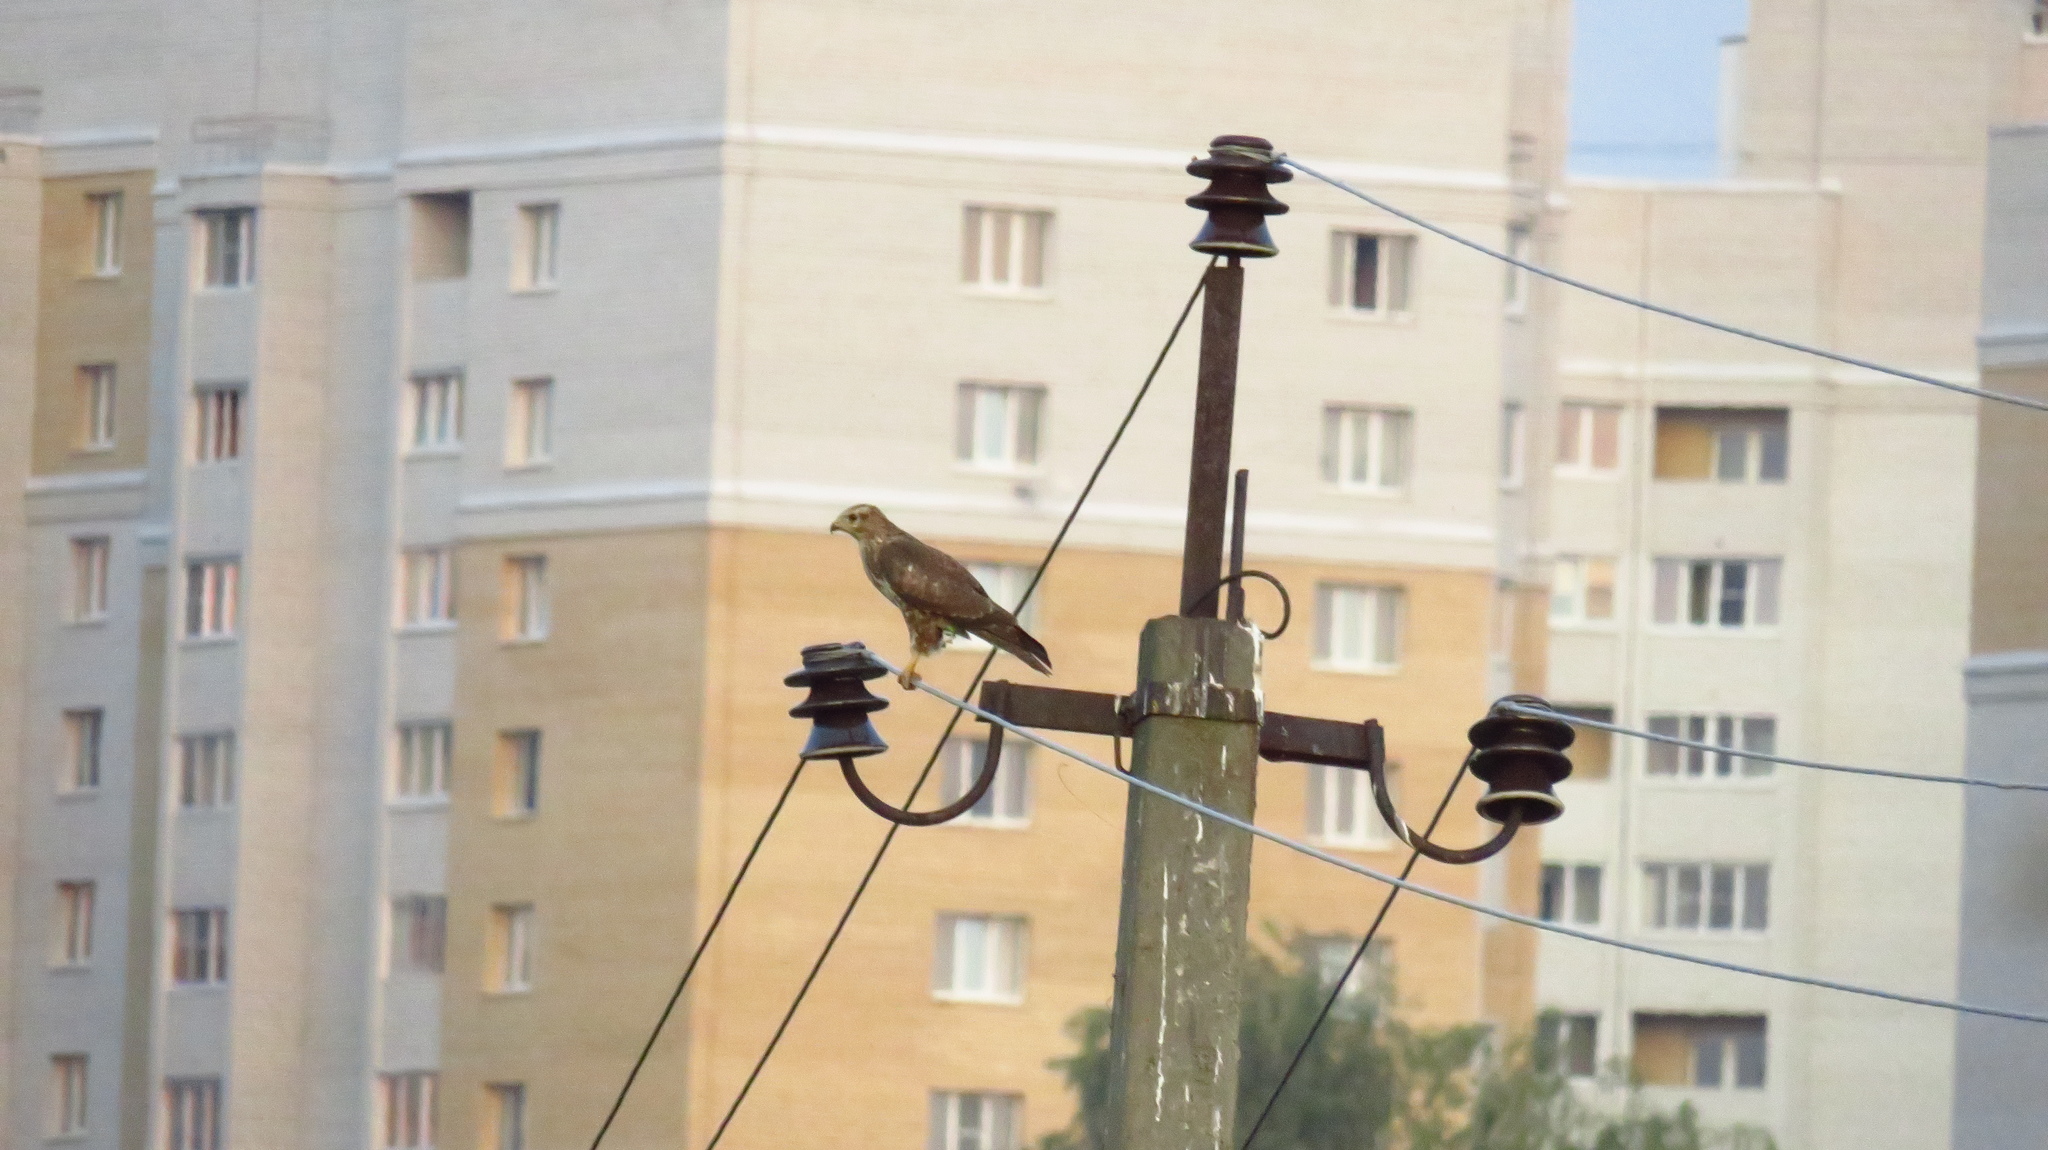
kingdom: Animalia
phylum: Chordata
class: Aves
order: Accipitriformes
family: Accipitridae
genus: Buteo
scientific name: Buteo buteo
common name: Common buzzard
